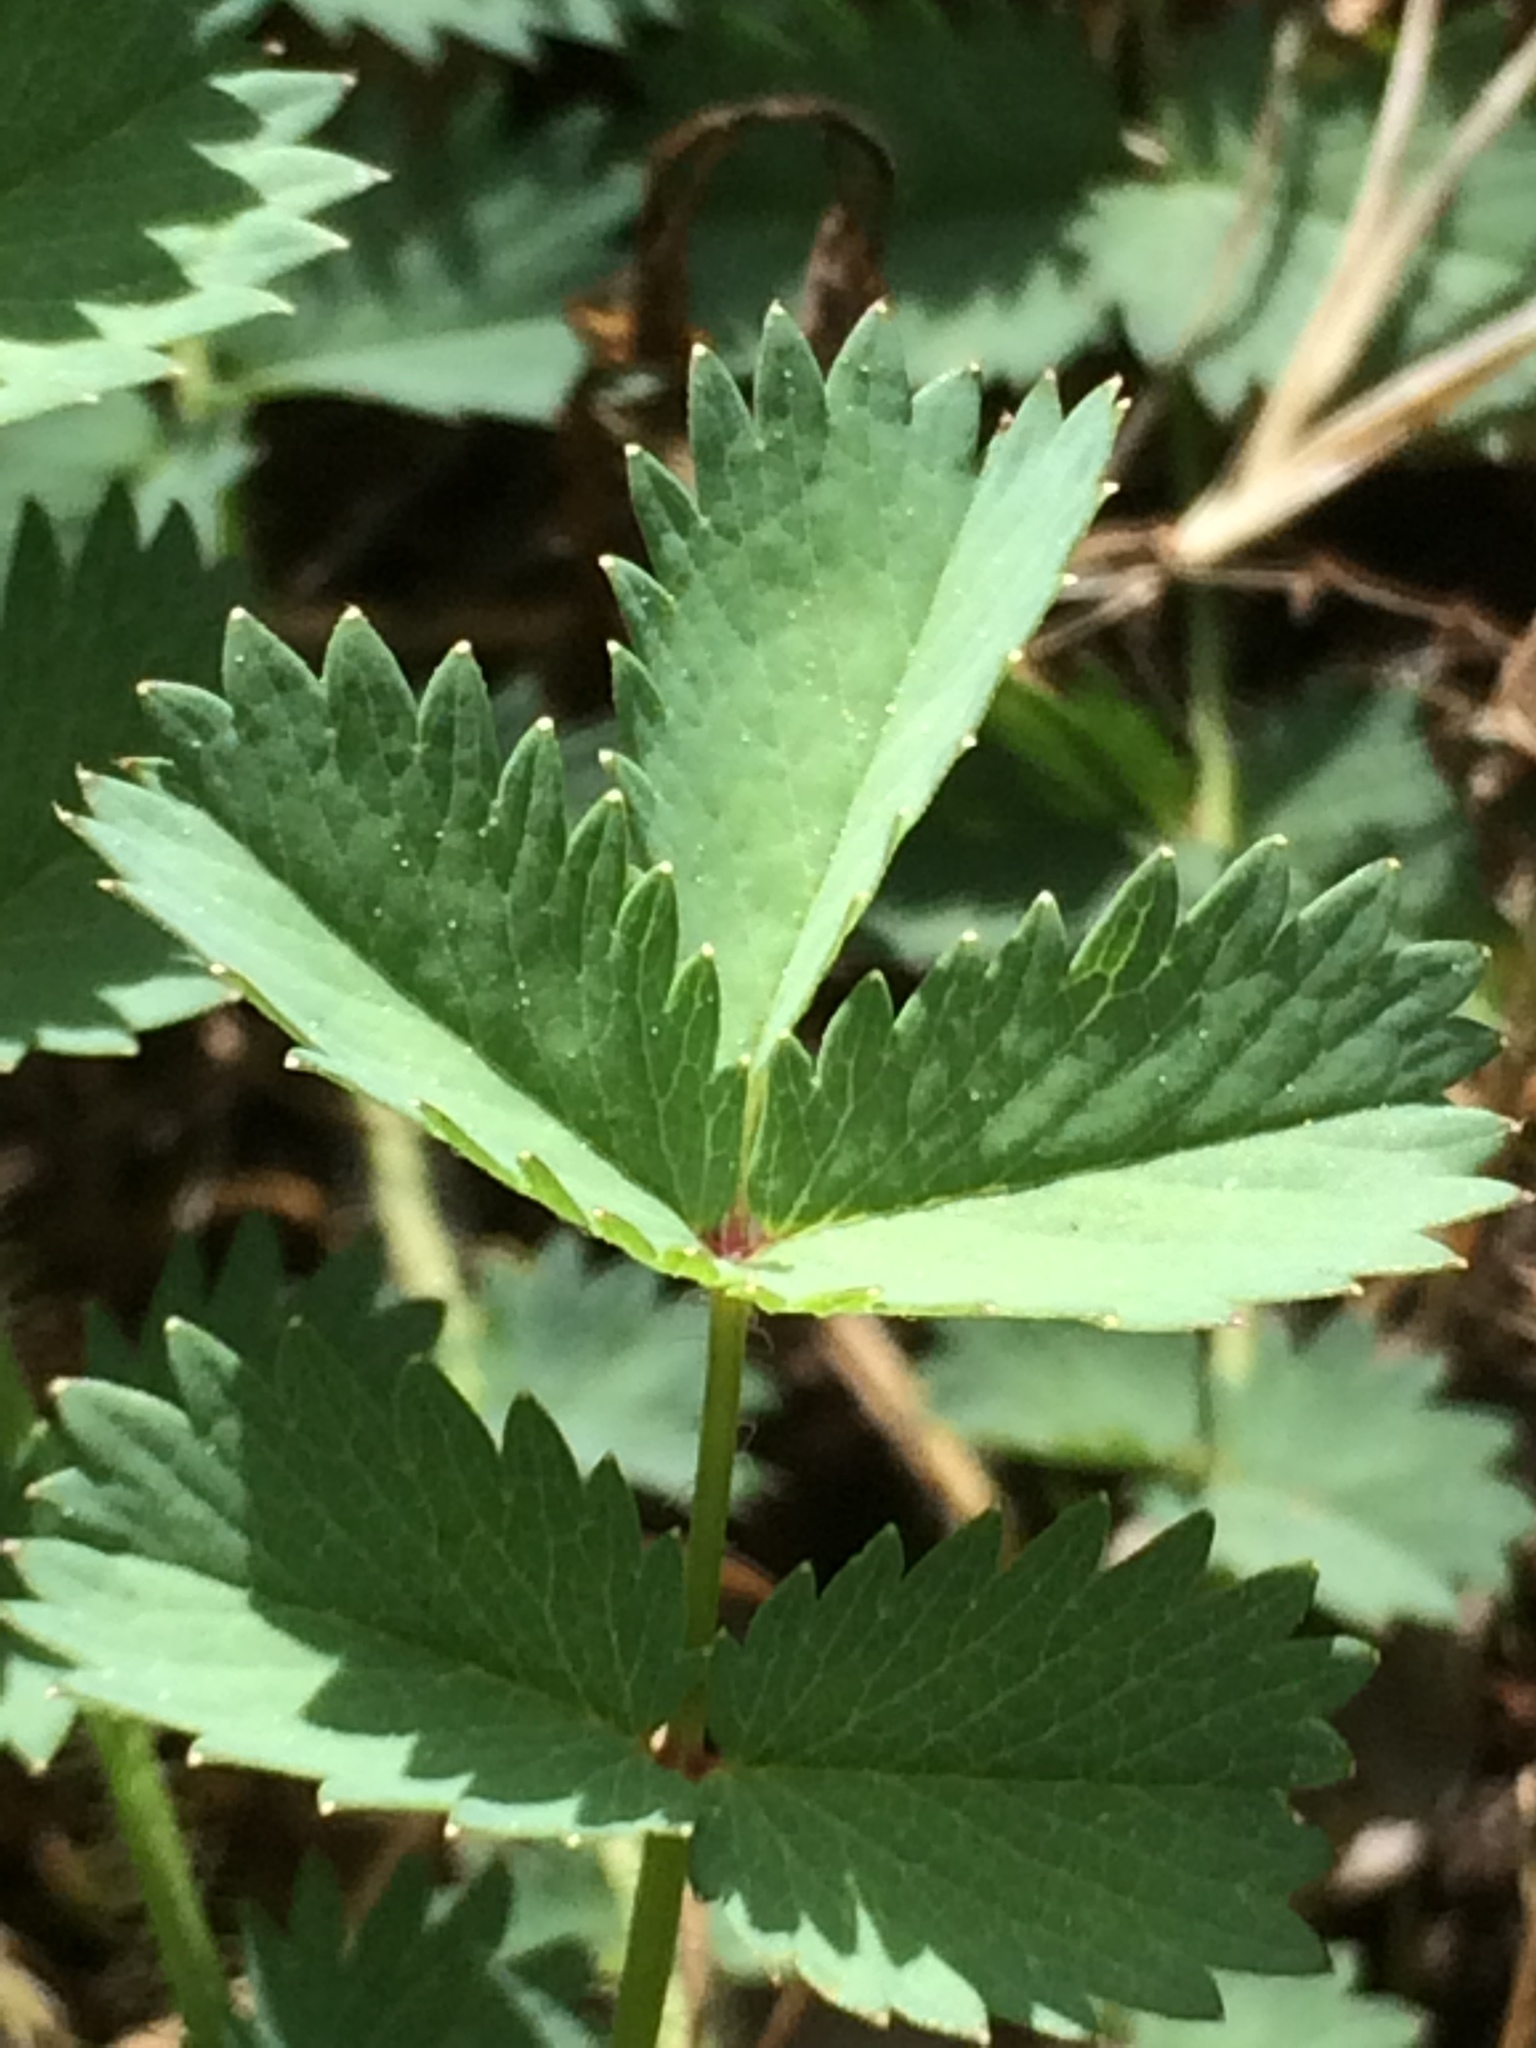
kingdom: Plantae
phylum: Tracheophyta
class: Magnoliopsida
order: Rosales
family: Rosaceae
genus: Poterium
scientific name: Poterium sanguisorba
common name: Salad burnet
